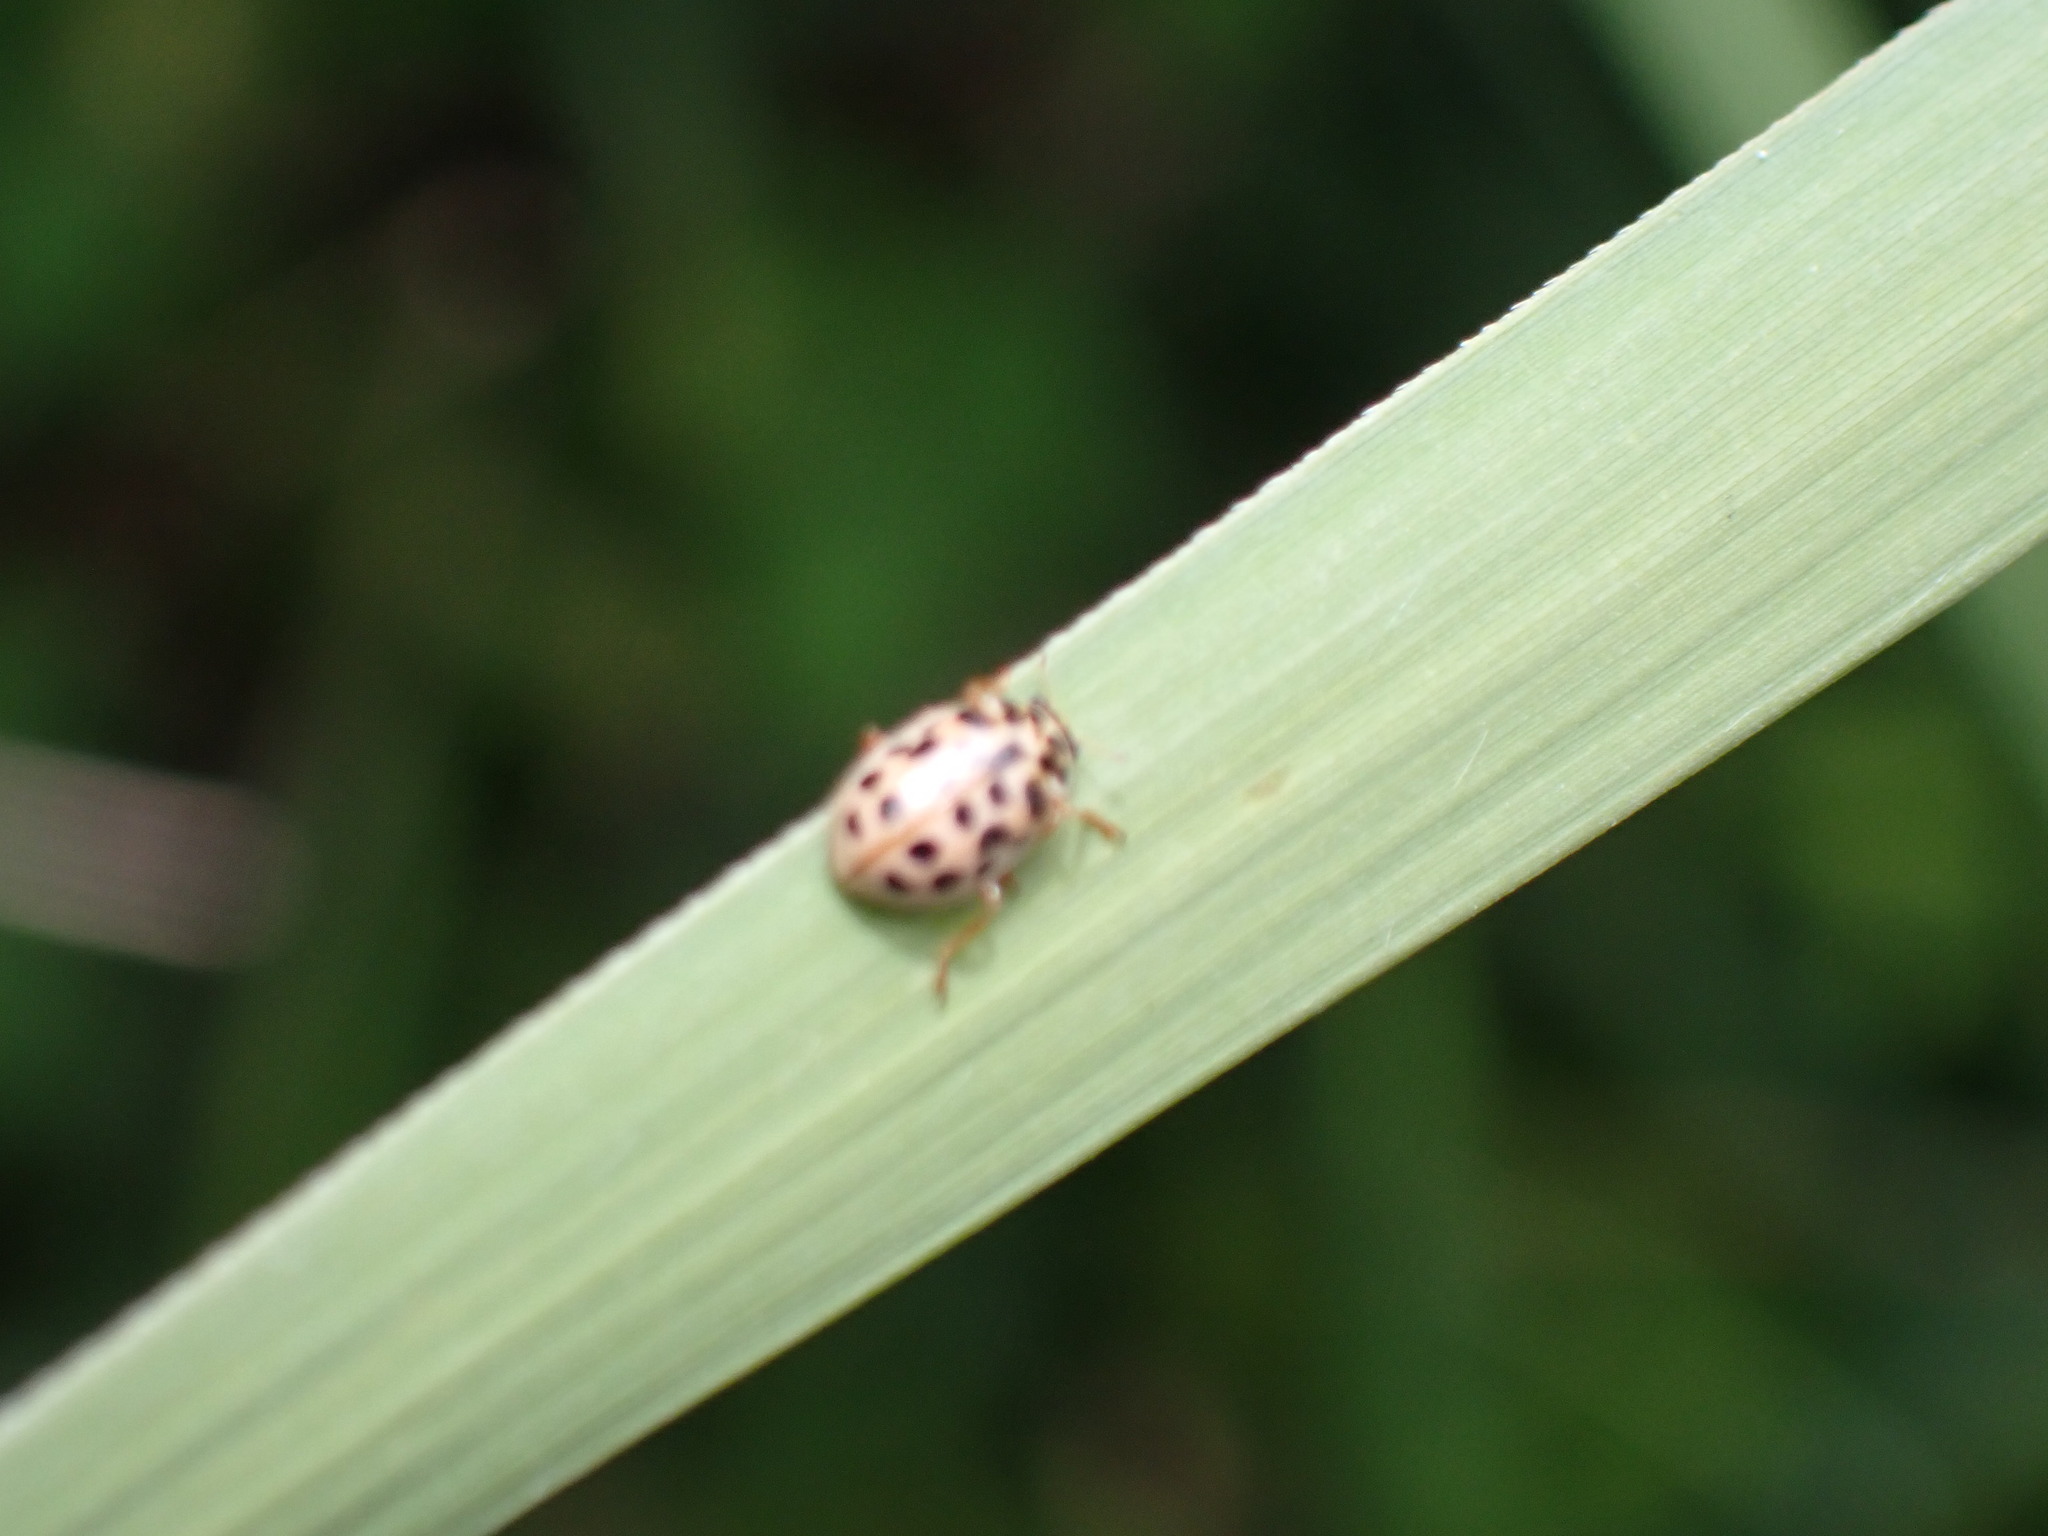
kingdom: Animalia
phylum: Arthropoda
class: Insecta
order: Coleoptera
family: Coccinellidae
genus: Anisosticta
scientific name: Anisosticta novemdecimpunctata
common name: Water ladybird
